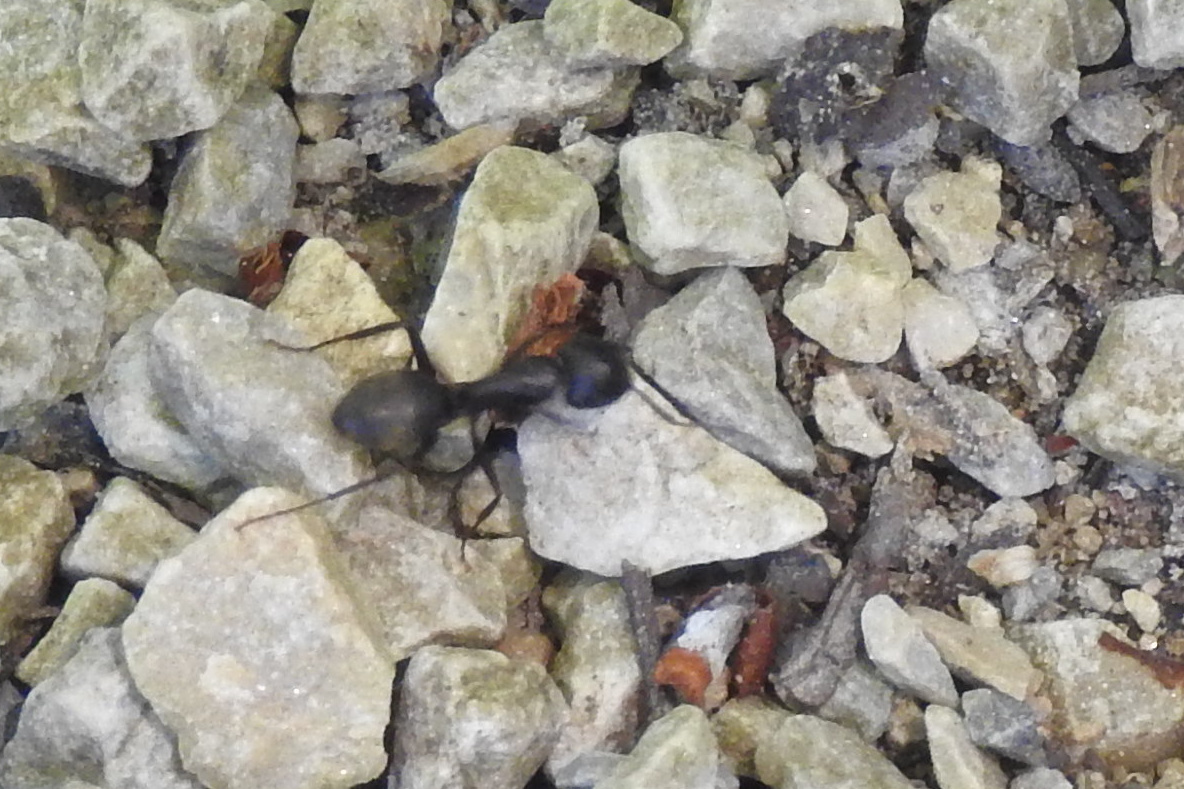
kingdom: Animalia
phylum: Arthropoda
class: Insecta
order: Hymenoptera
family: Formicidae
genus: Camponotus
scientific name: Camponotus pennsylvanicus
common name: Black carpenter ant
